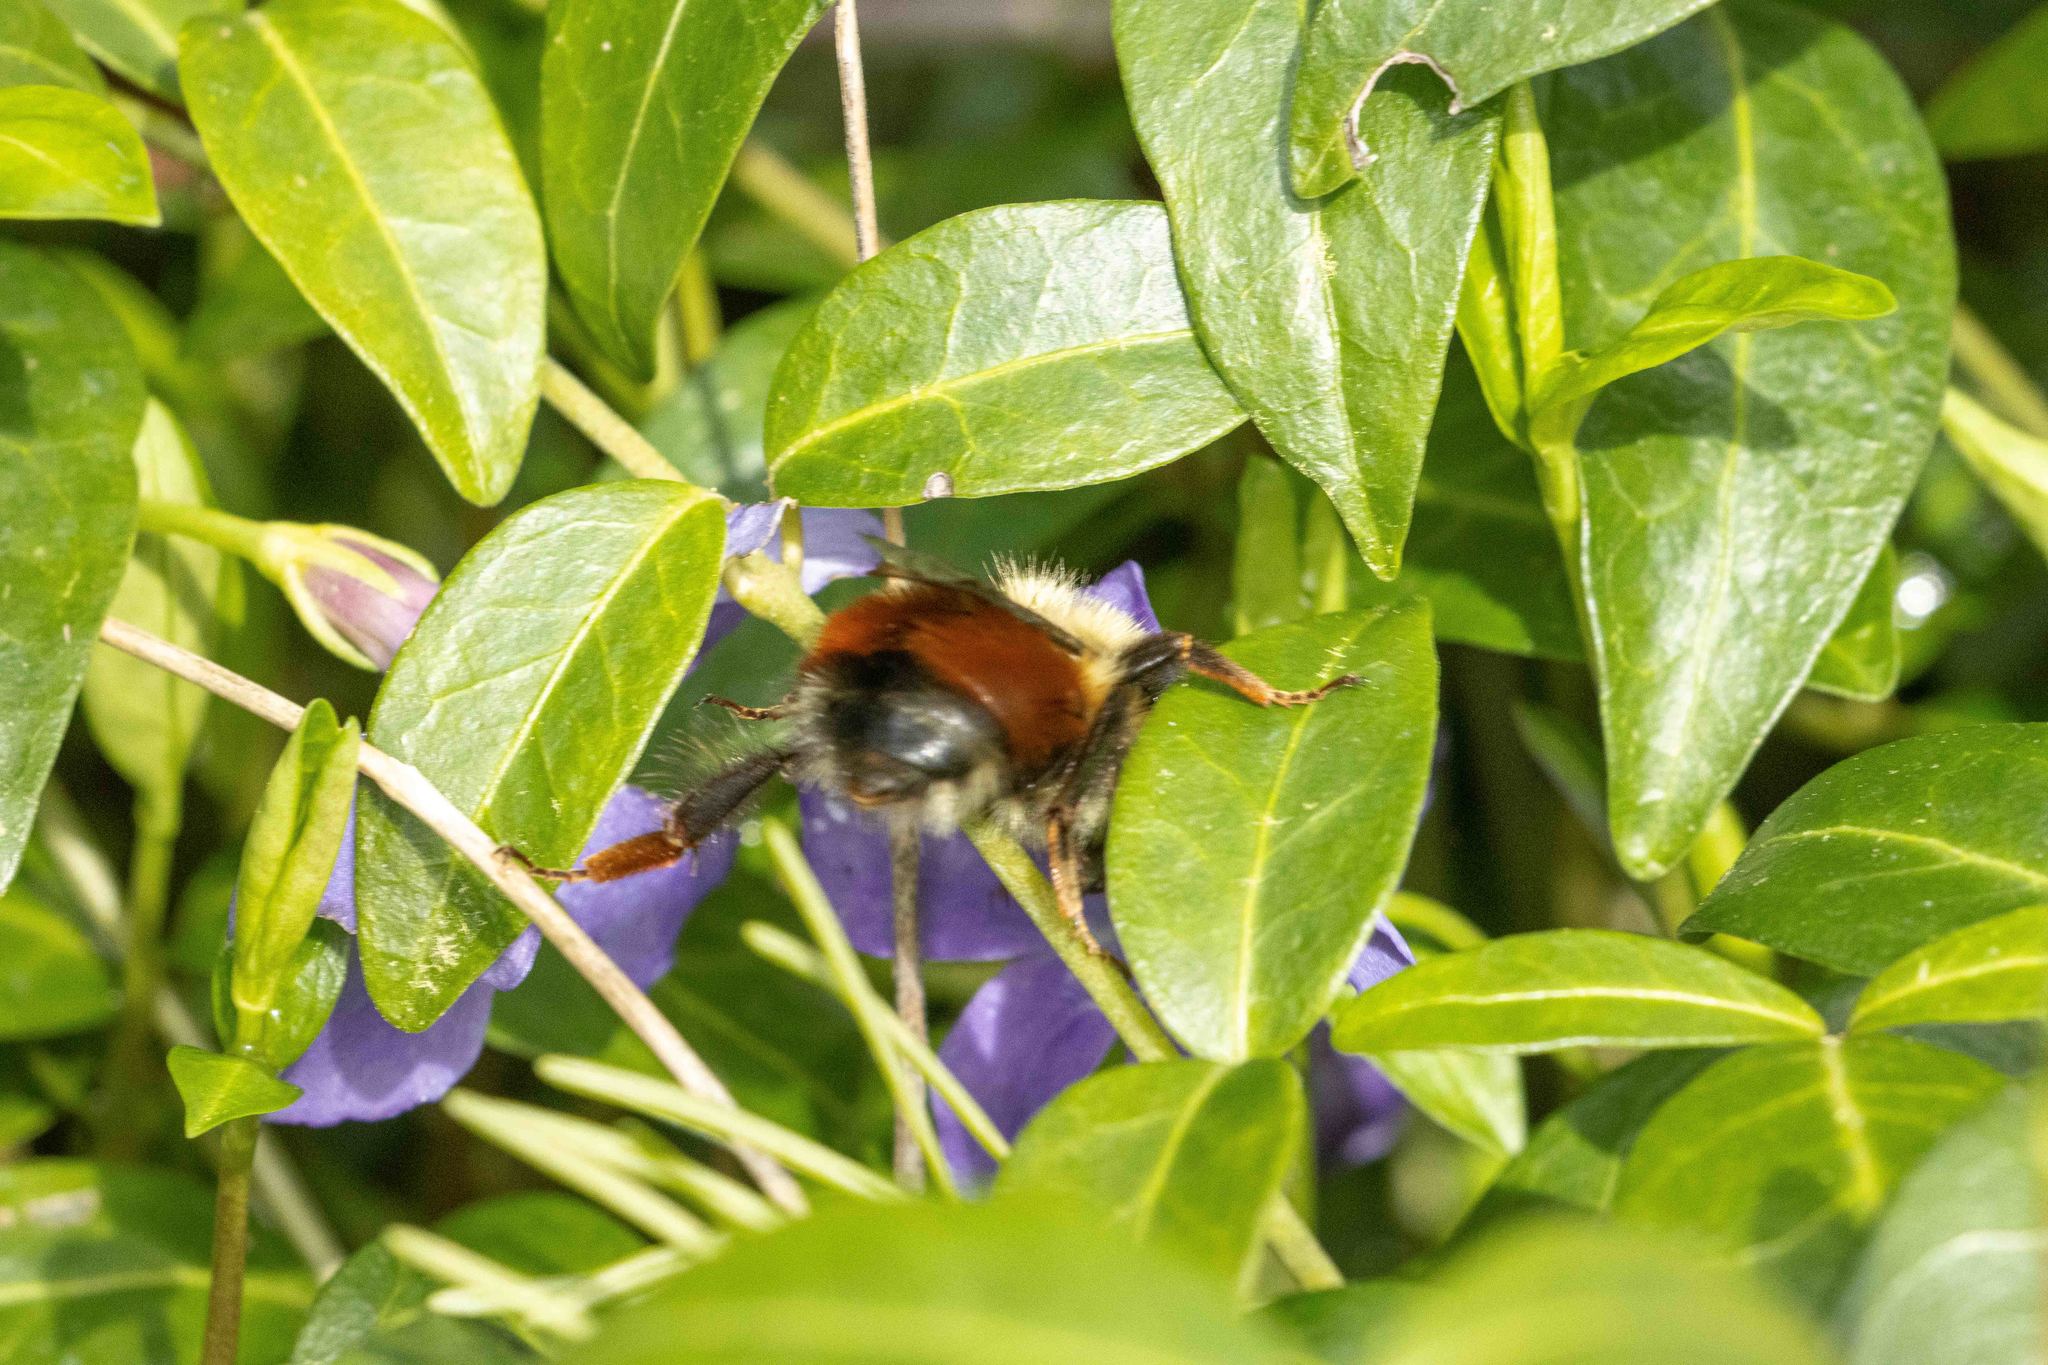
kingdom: Animalia
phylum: Arthropoda
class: Insecta
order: Hymenoptera
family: Apidae
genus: Bombus
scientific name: Bombus melanopygus
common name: Black tail bumble bee
